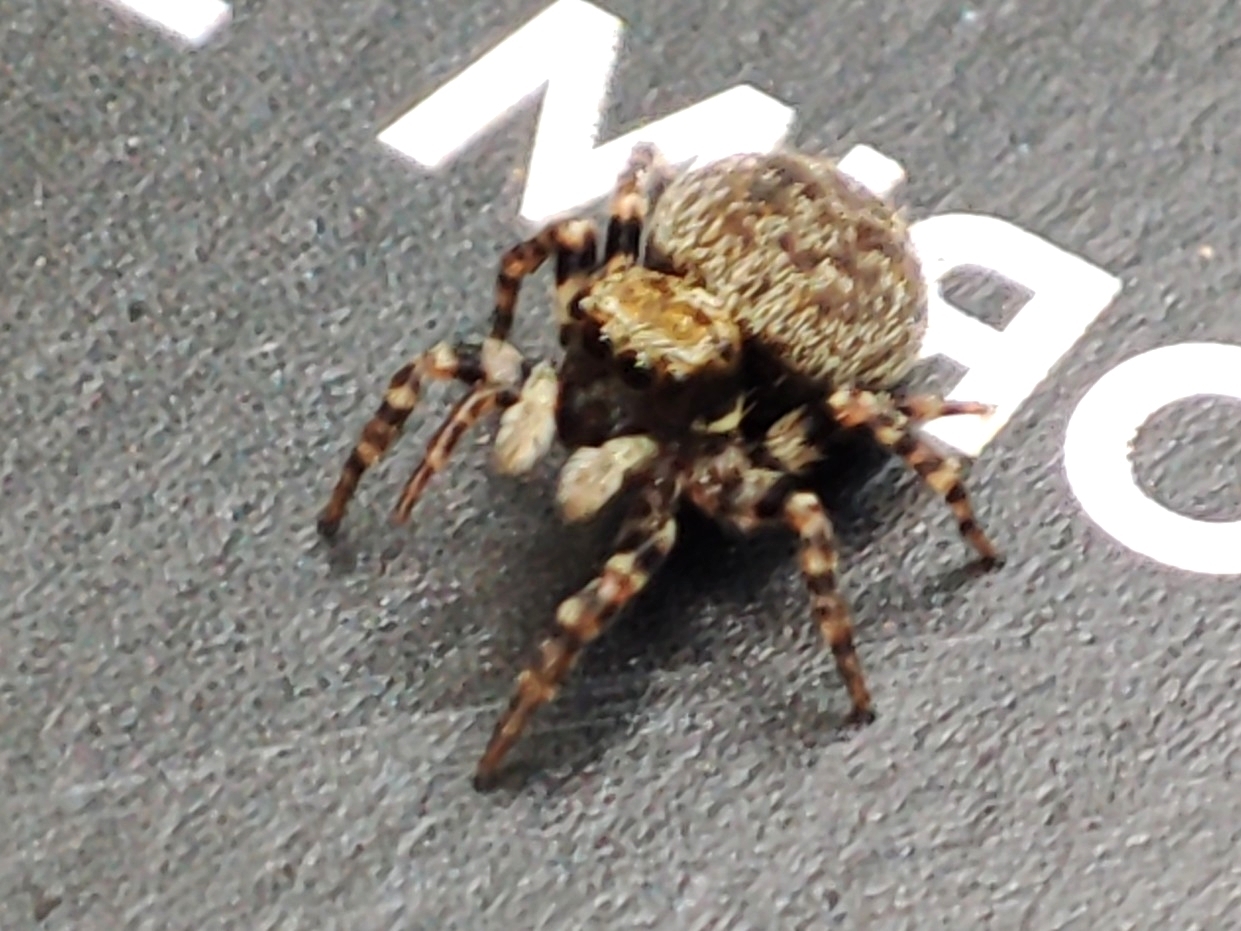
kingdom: Animalia
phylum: Arthropoda
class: Arachnida
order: Araneae
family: Salticidae
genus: Pseudeuophrys
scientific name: Pseudeuophrys erratica
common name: Jumping spider
